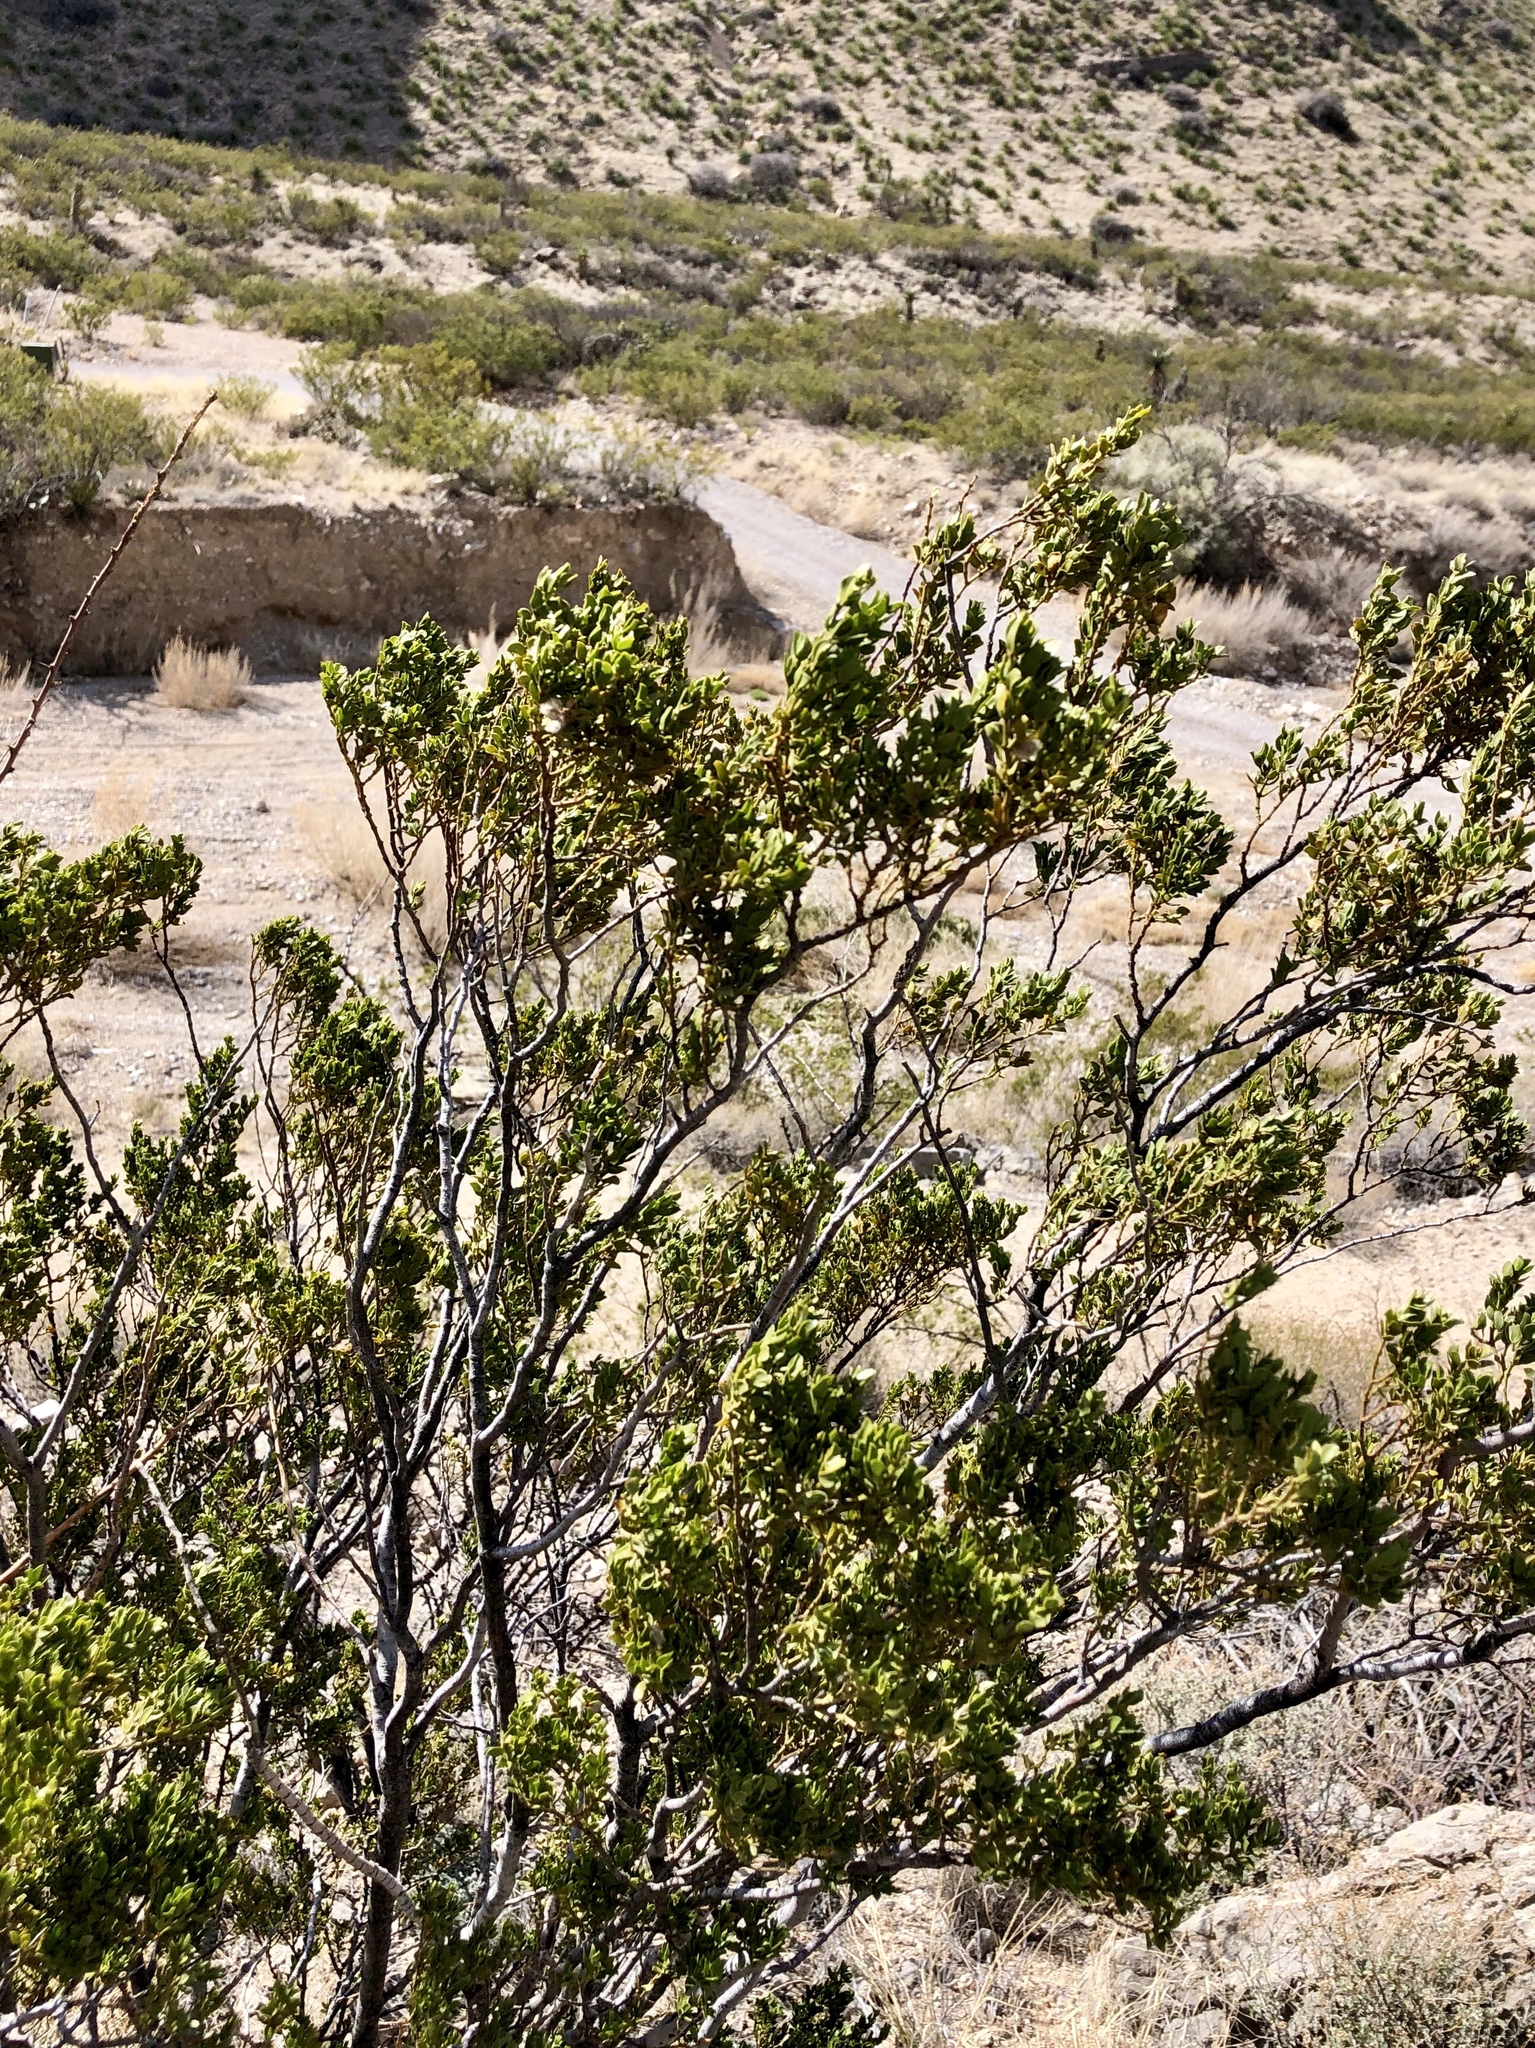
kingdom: Plantae
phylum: Tracheophyta
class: Magnoliopsida
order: Zygophyllales
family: Zygophyllaceae
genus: Larrea
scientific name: Larrea tridentata
